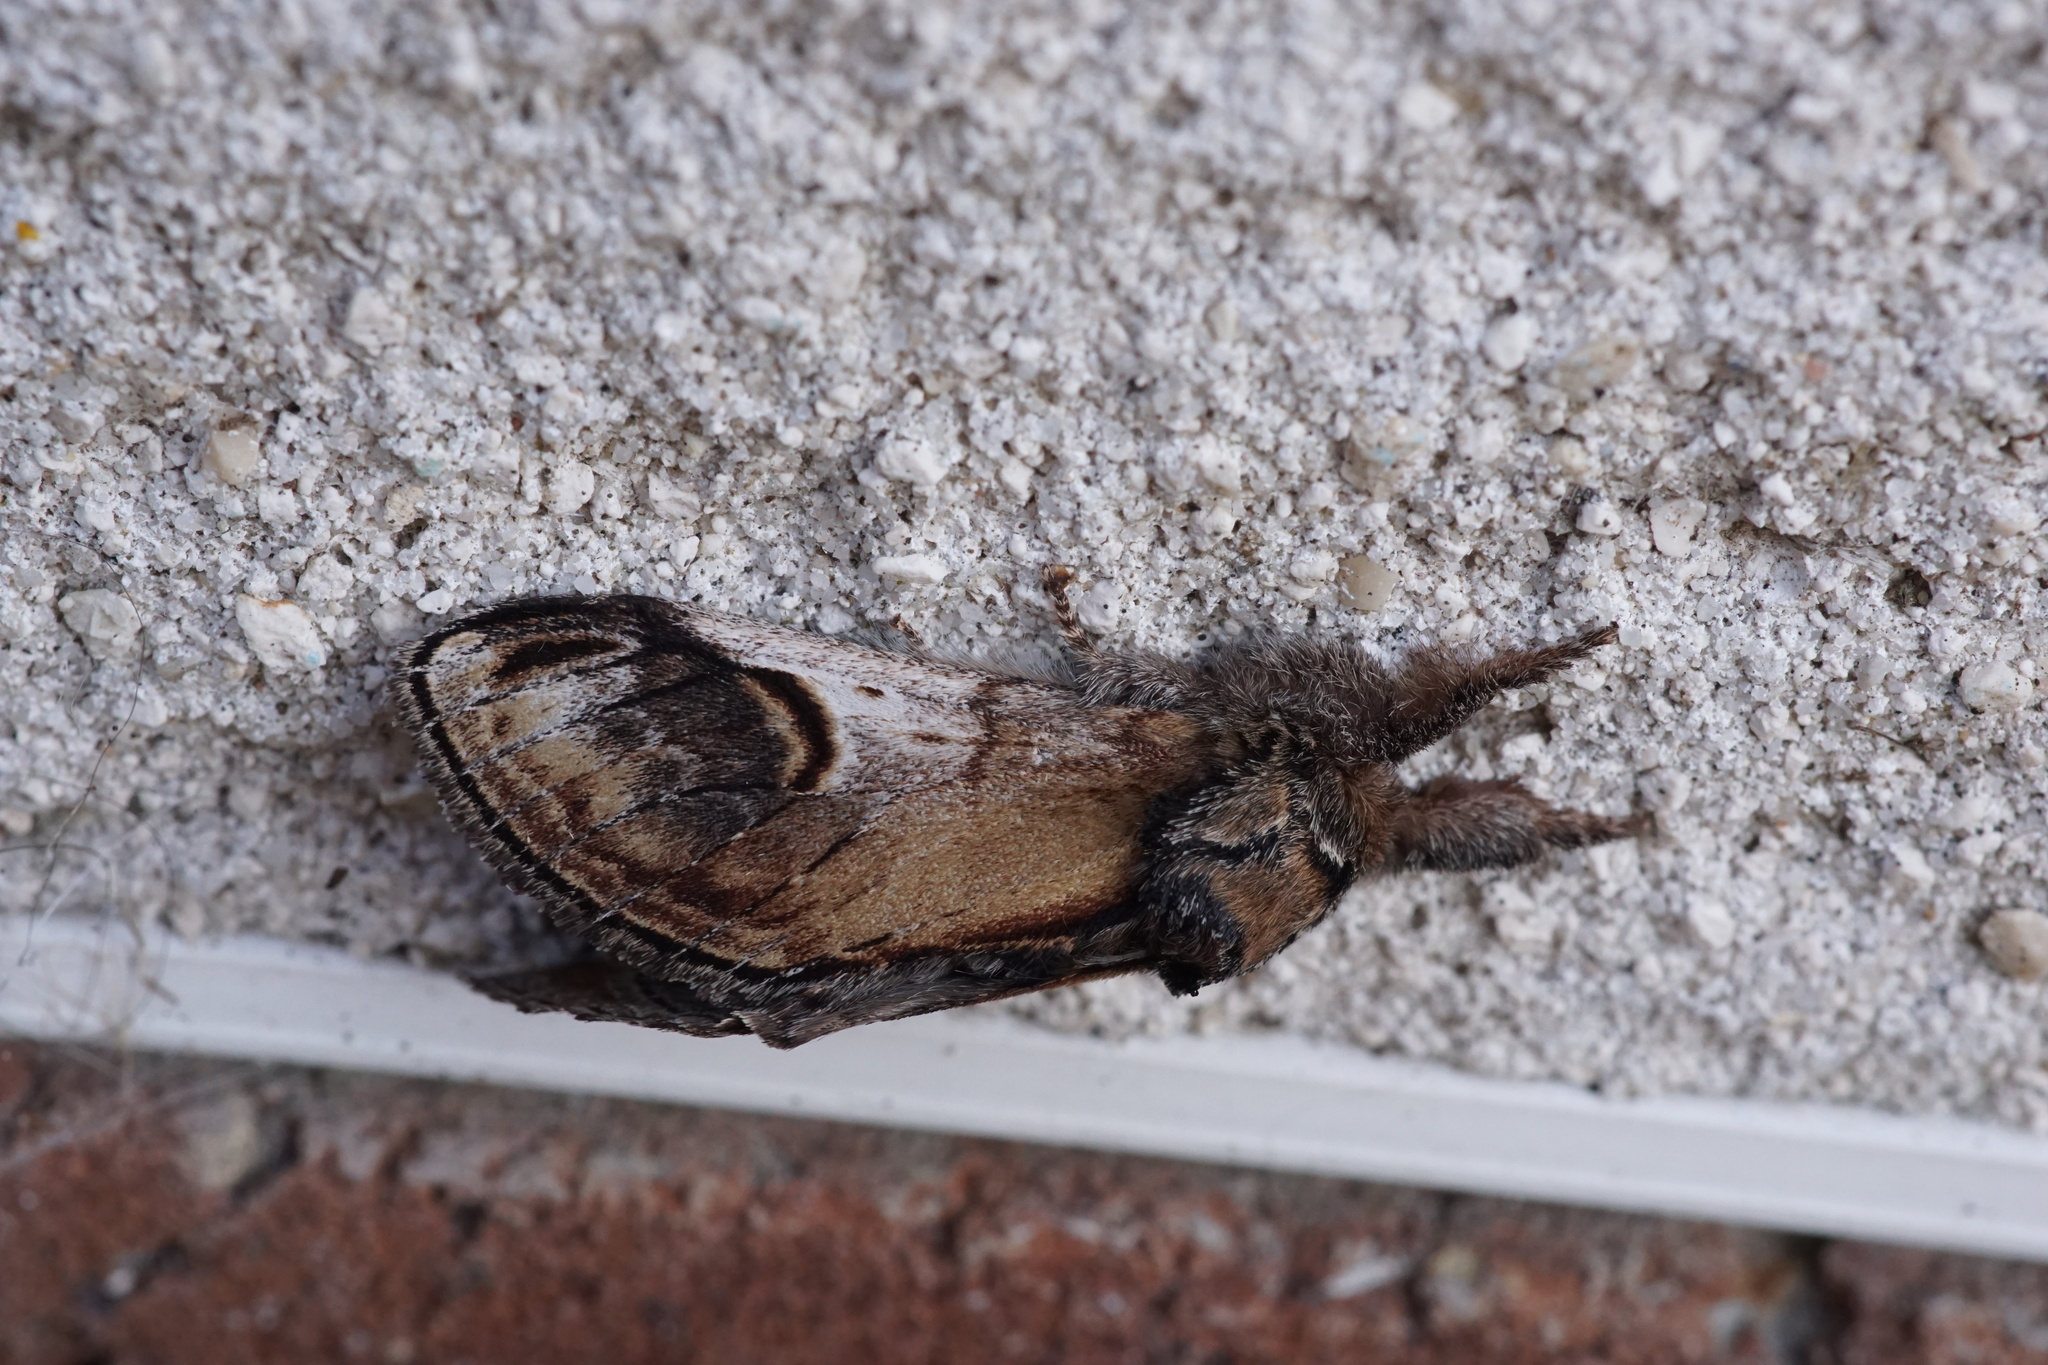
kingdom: Animalia
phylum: Arthropoda
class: Insecta
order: Lepidoptera
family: Notodontidae
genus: Notodonta
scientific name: Notodonta ziczac
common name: Pebble prominent
